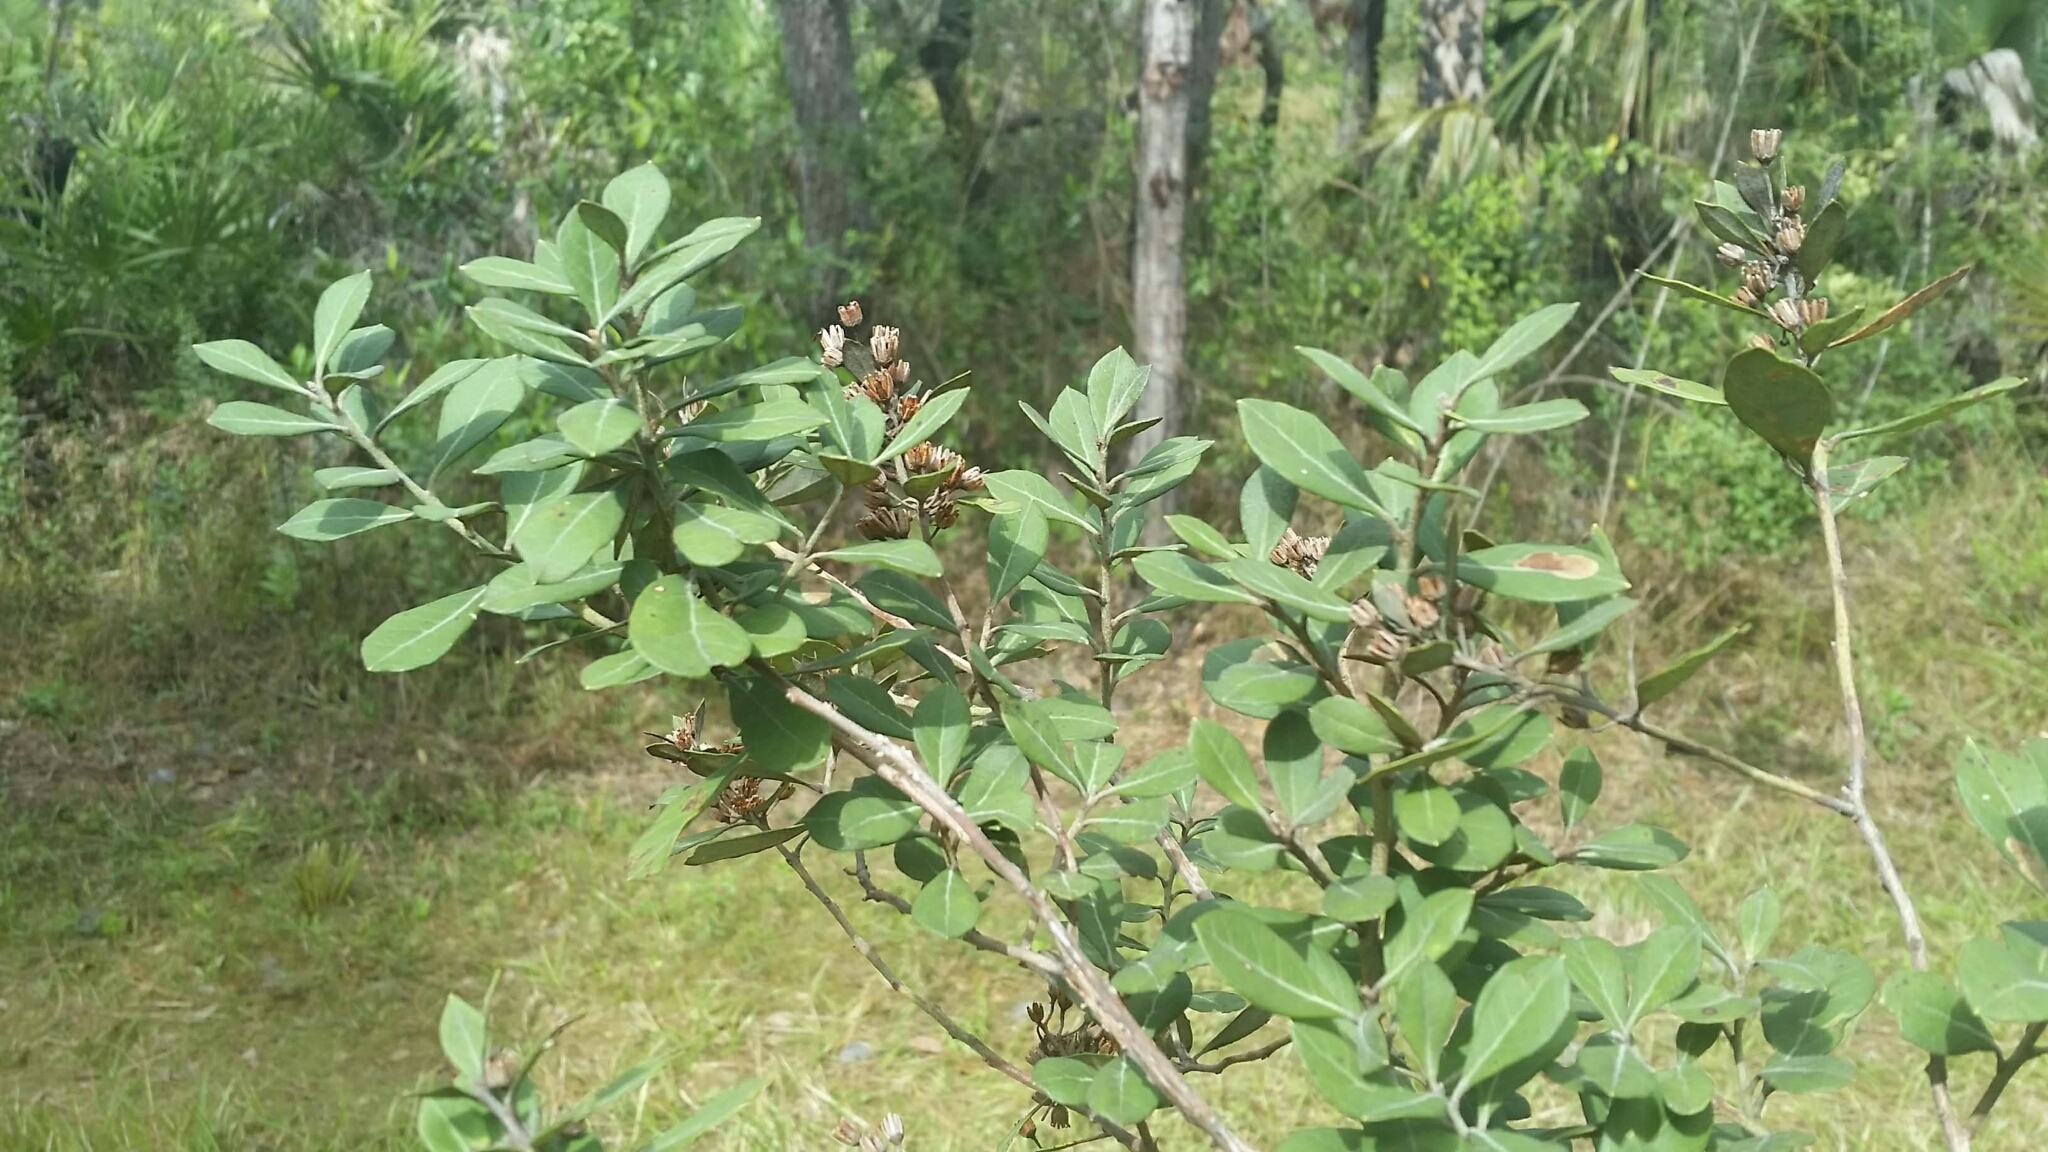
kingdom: Plantae
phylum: Tracheophyta
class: Magnoliopsida
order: Ericales
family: Ericaceae
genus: Lyonia
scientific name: Lyonia fruticosa
